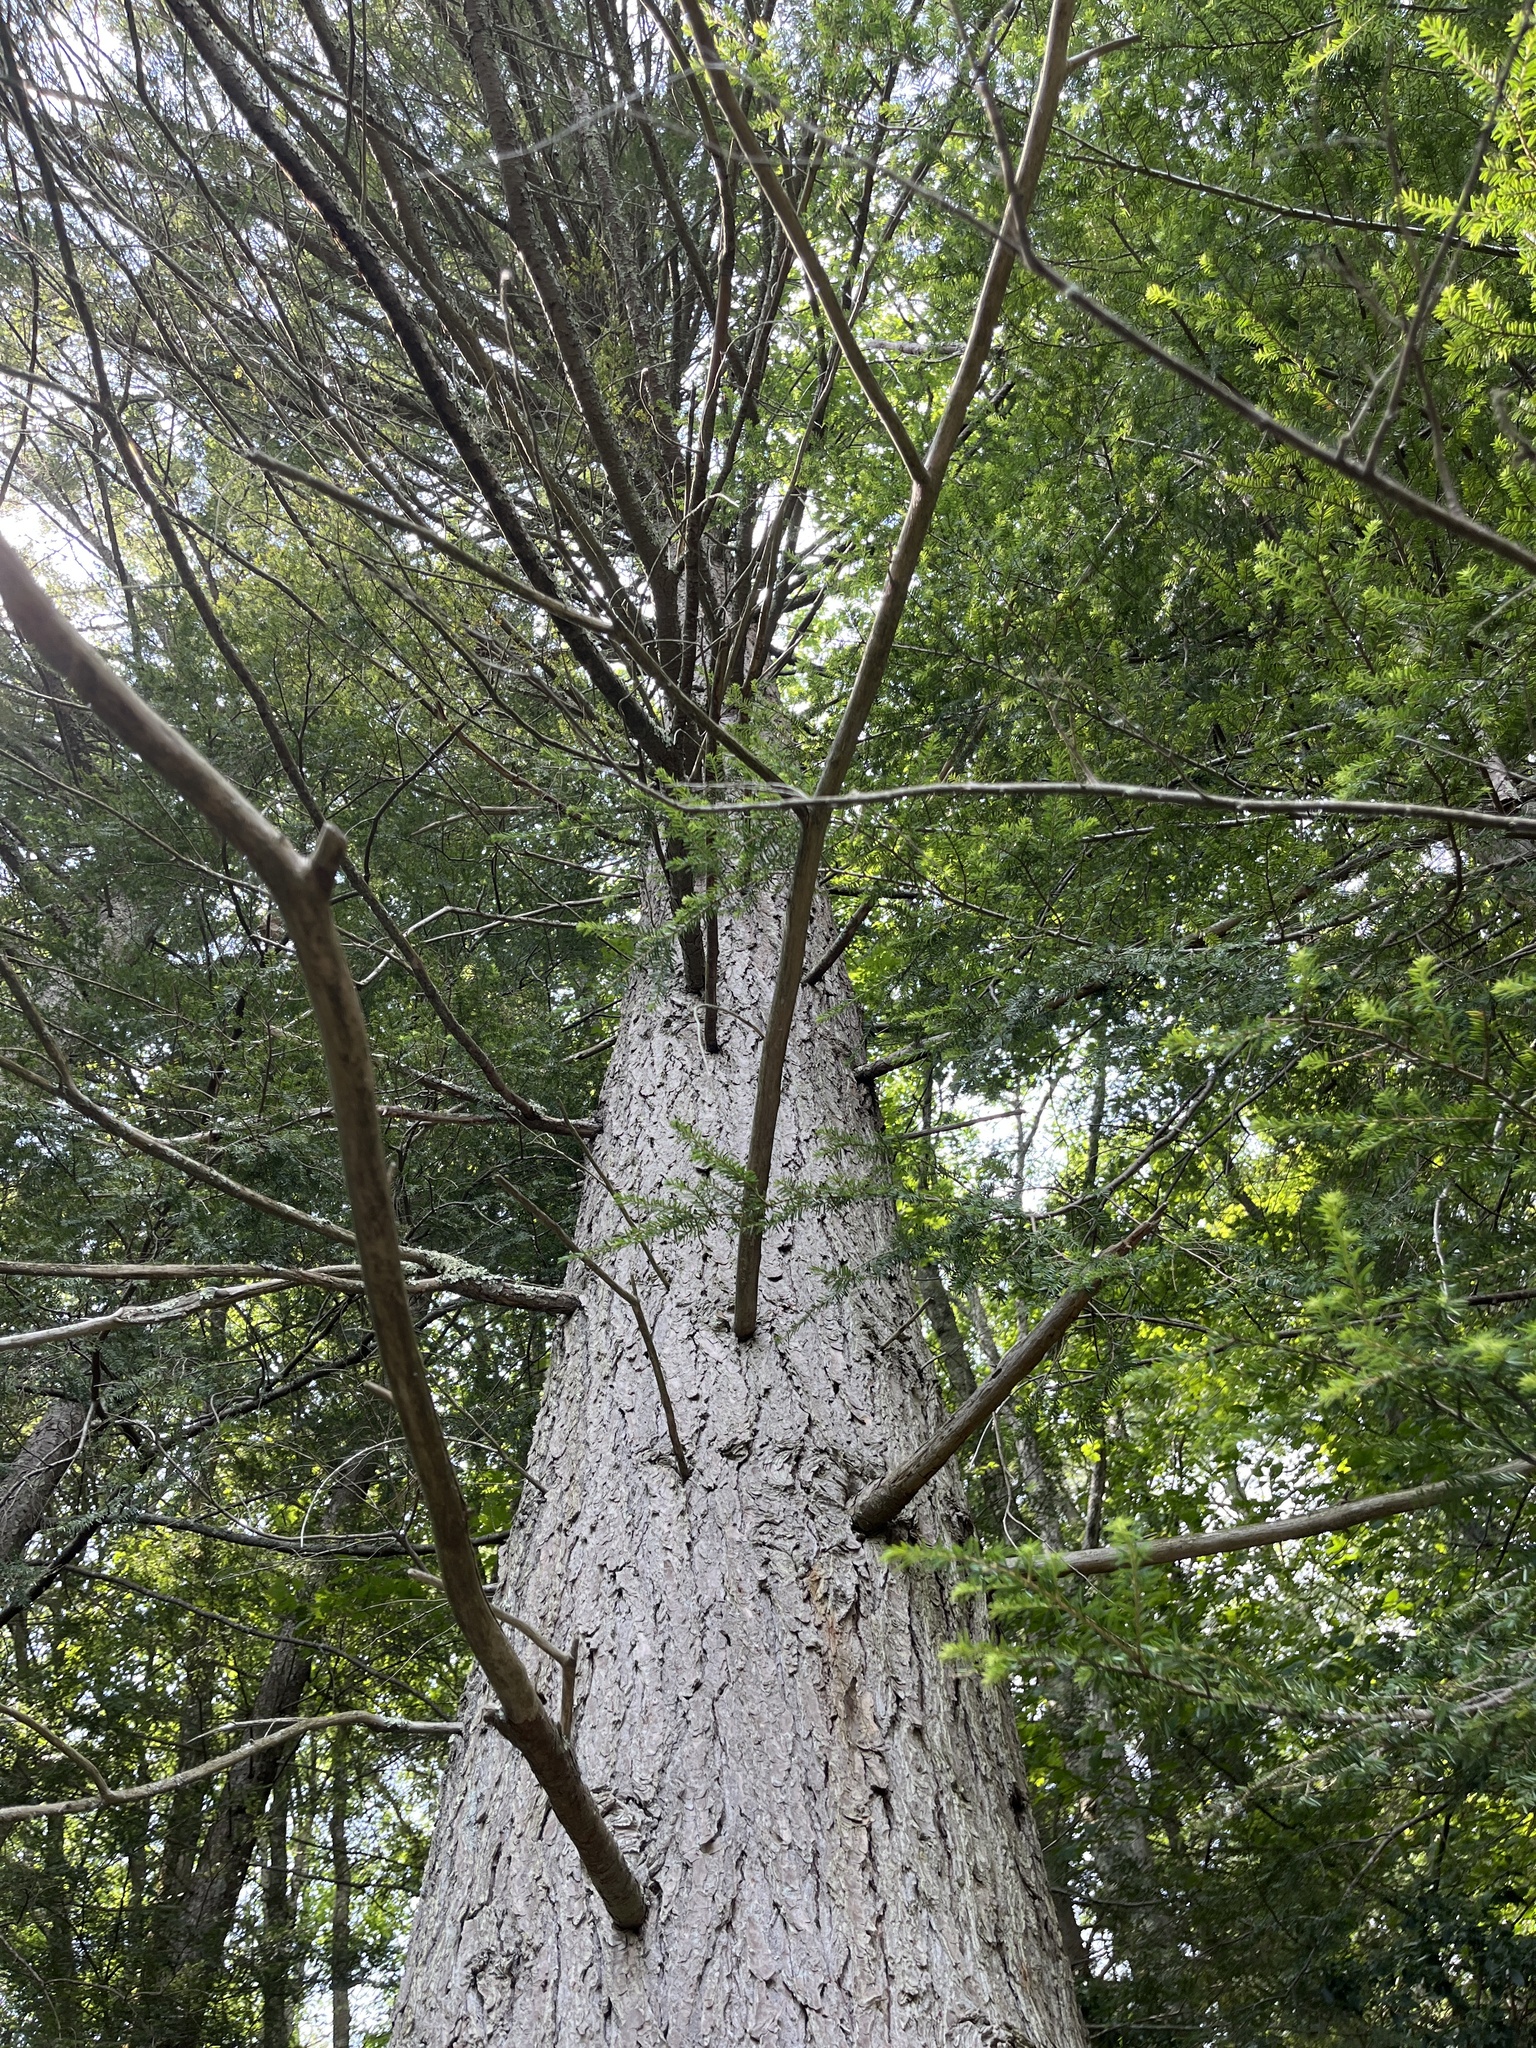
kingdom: Plantae
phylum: Tracheophyta
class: Pinopsida
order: Pinales
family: Pinaceae
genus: Tsuga
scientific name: Tsuga canadensis
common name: Eastern hemlock
